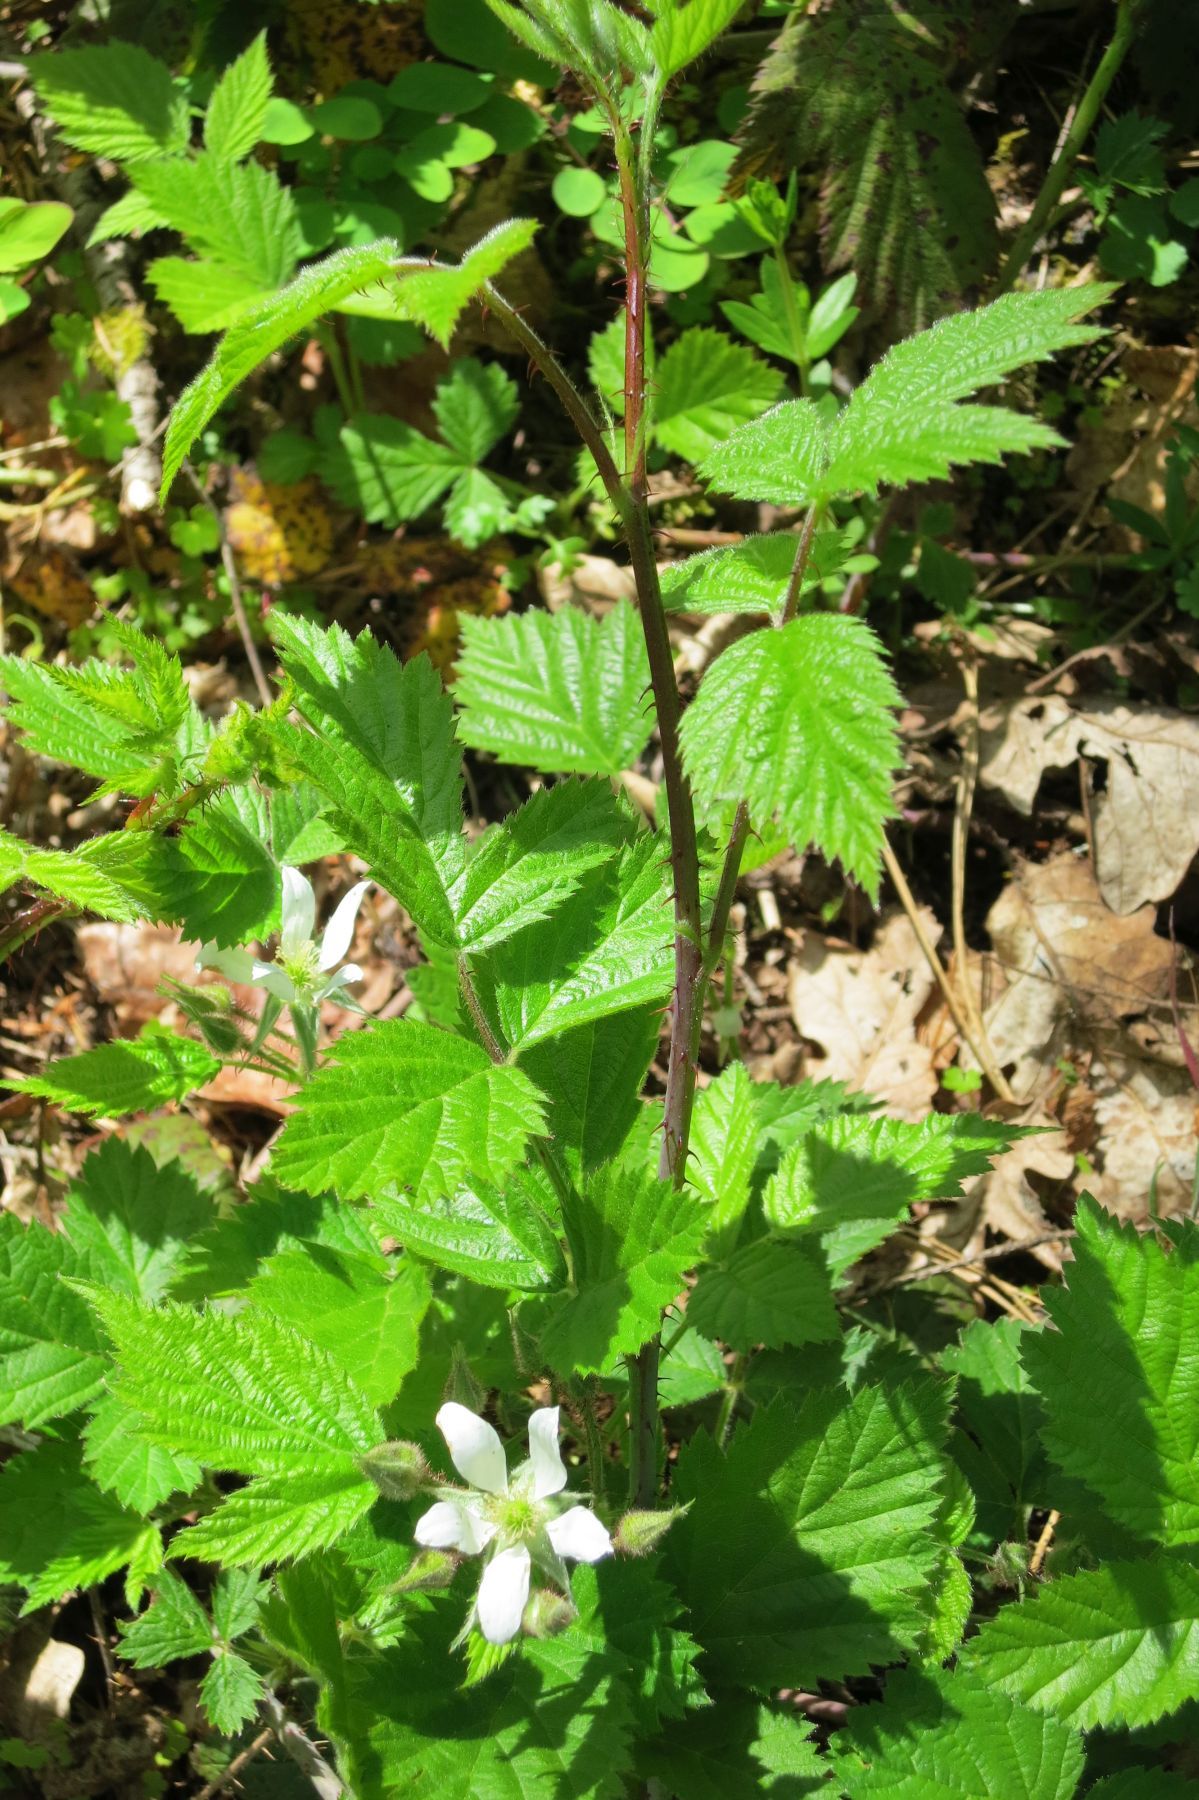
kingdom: Plantae
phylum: Tracheophyta
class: Magnoliopsida
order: Rosales
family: Rosaceae
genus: Rubus
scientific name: Rubus ursinus
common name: Pacific blackberry
